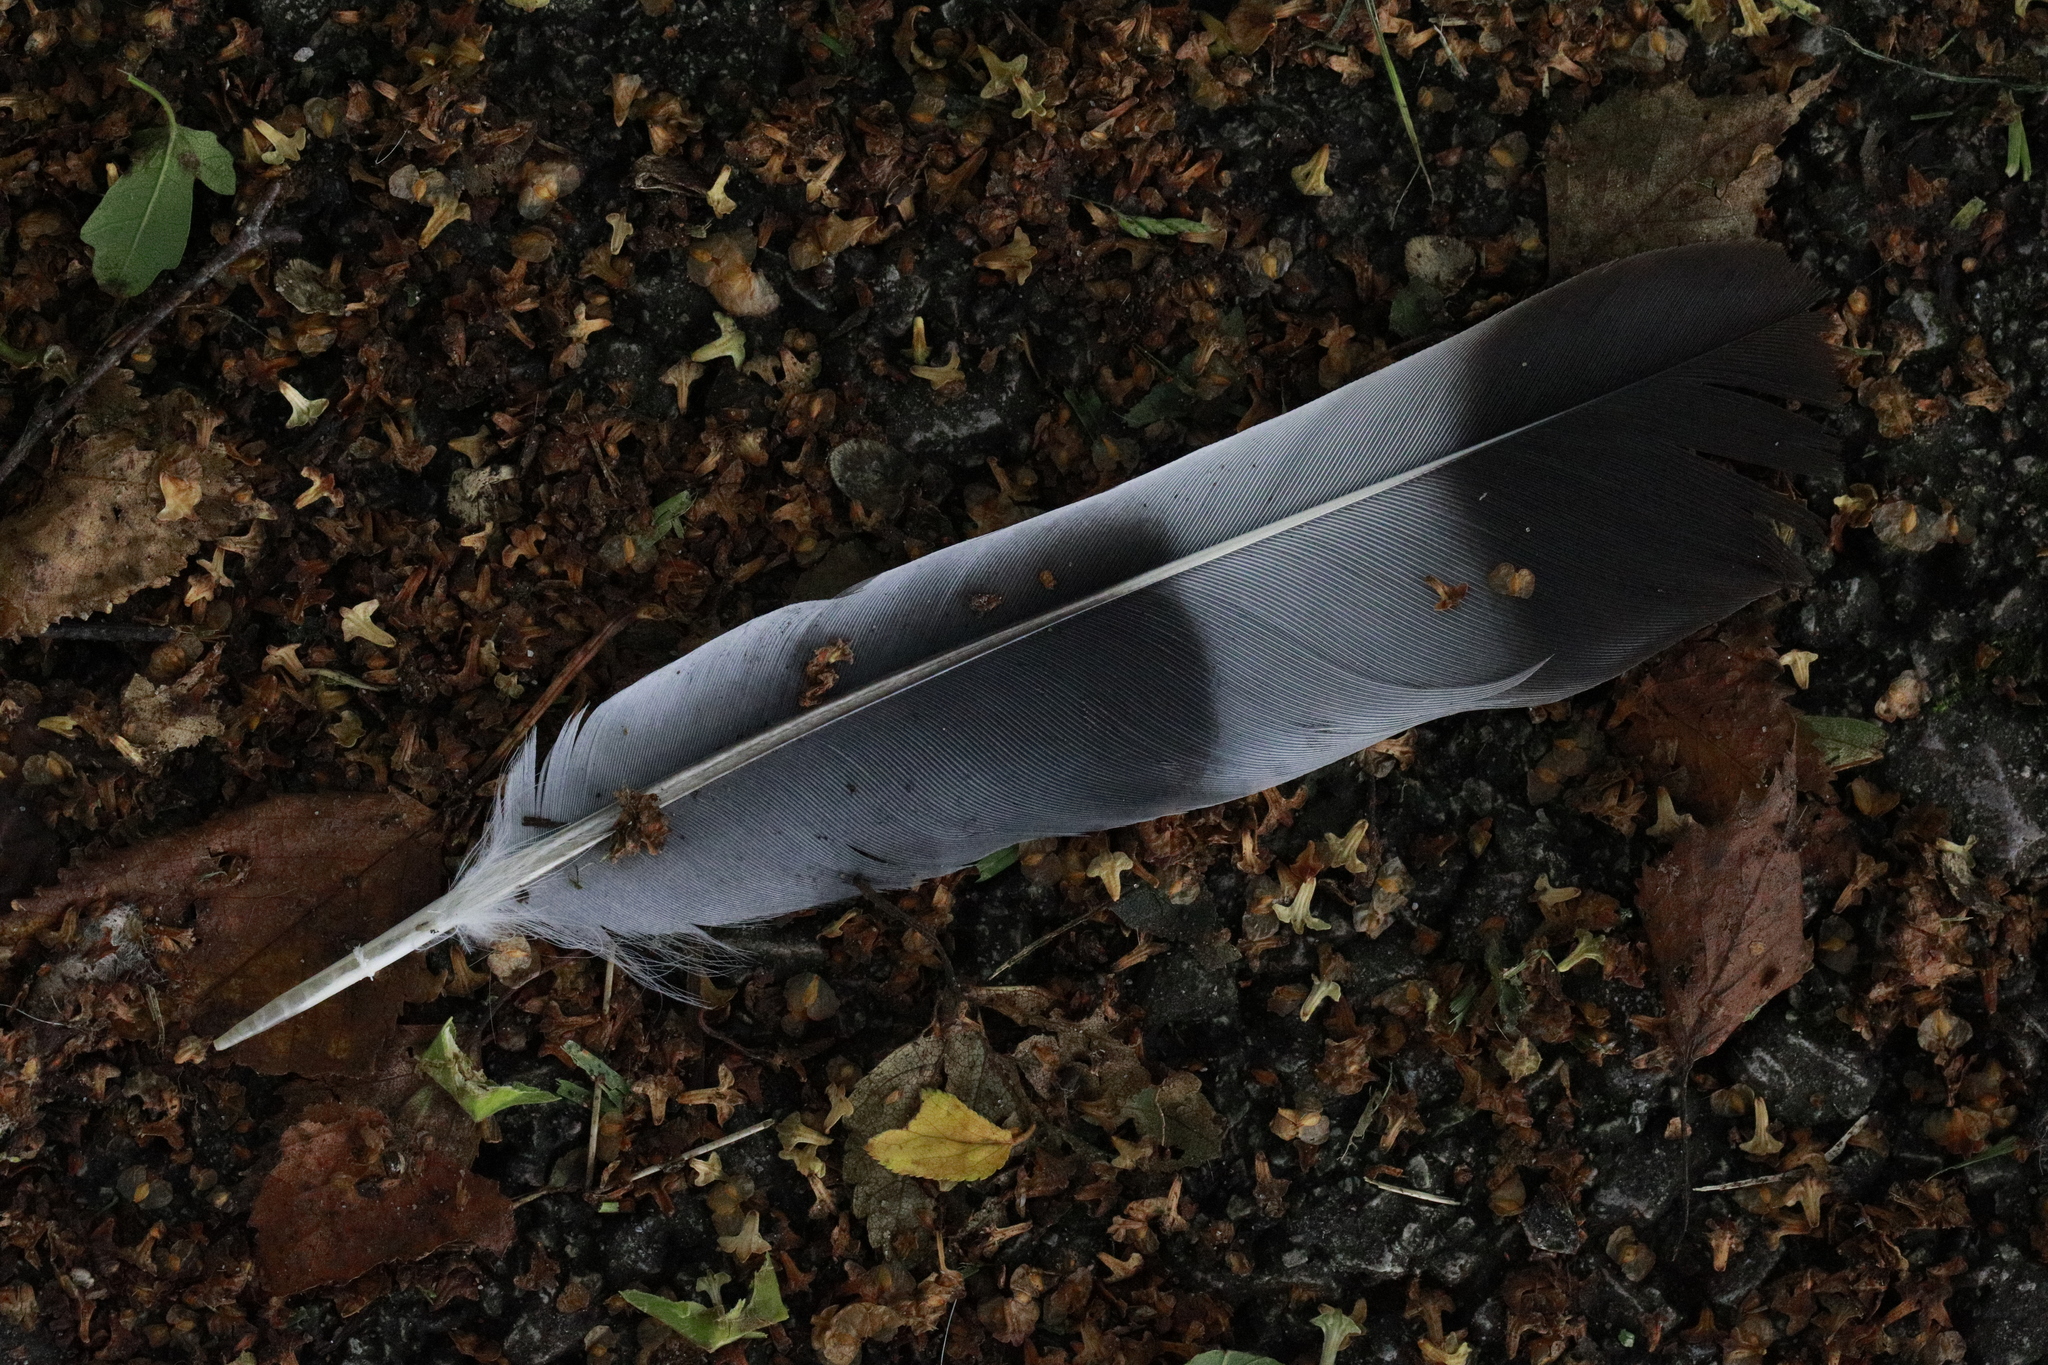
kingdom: Animalia
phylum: Chordata
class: Aves
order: Columbiformes
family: Columbidae
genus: Columba
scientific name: Columba palumbus
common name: Common wood pigeon
